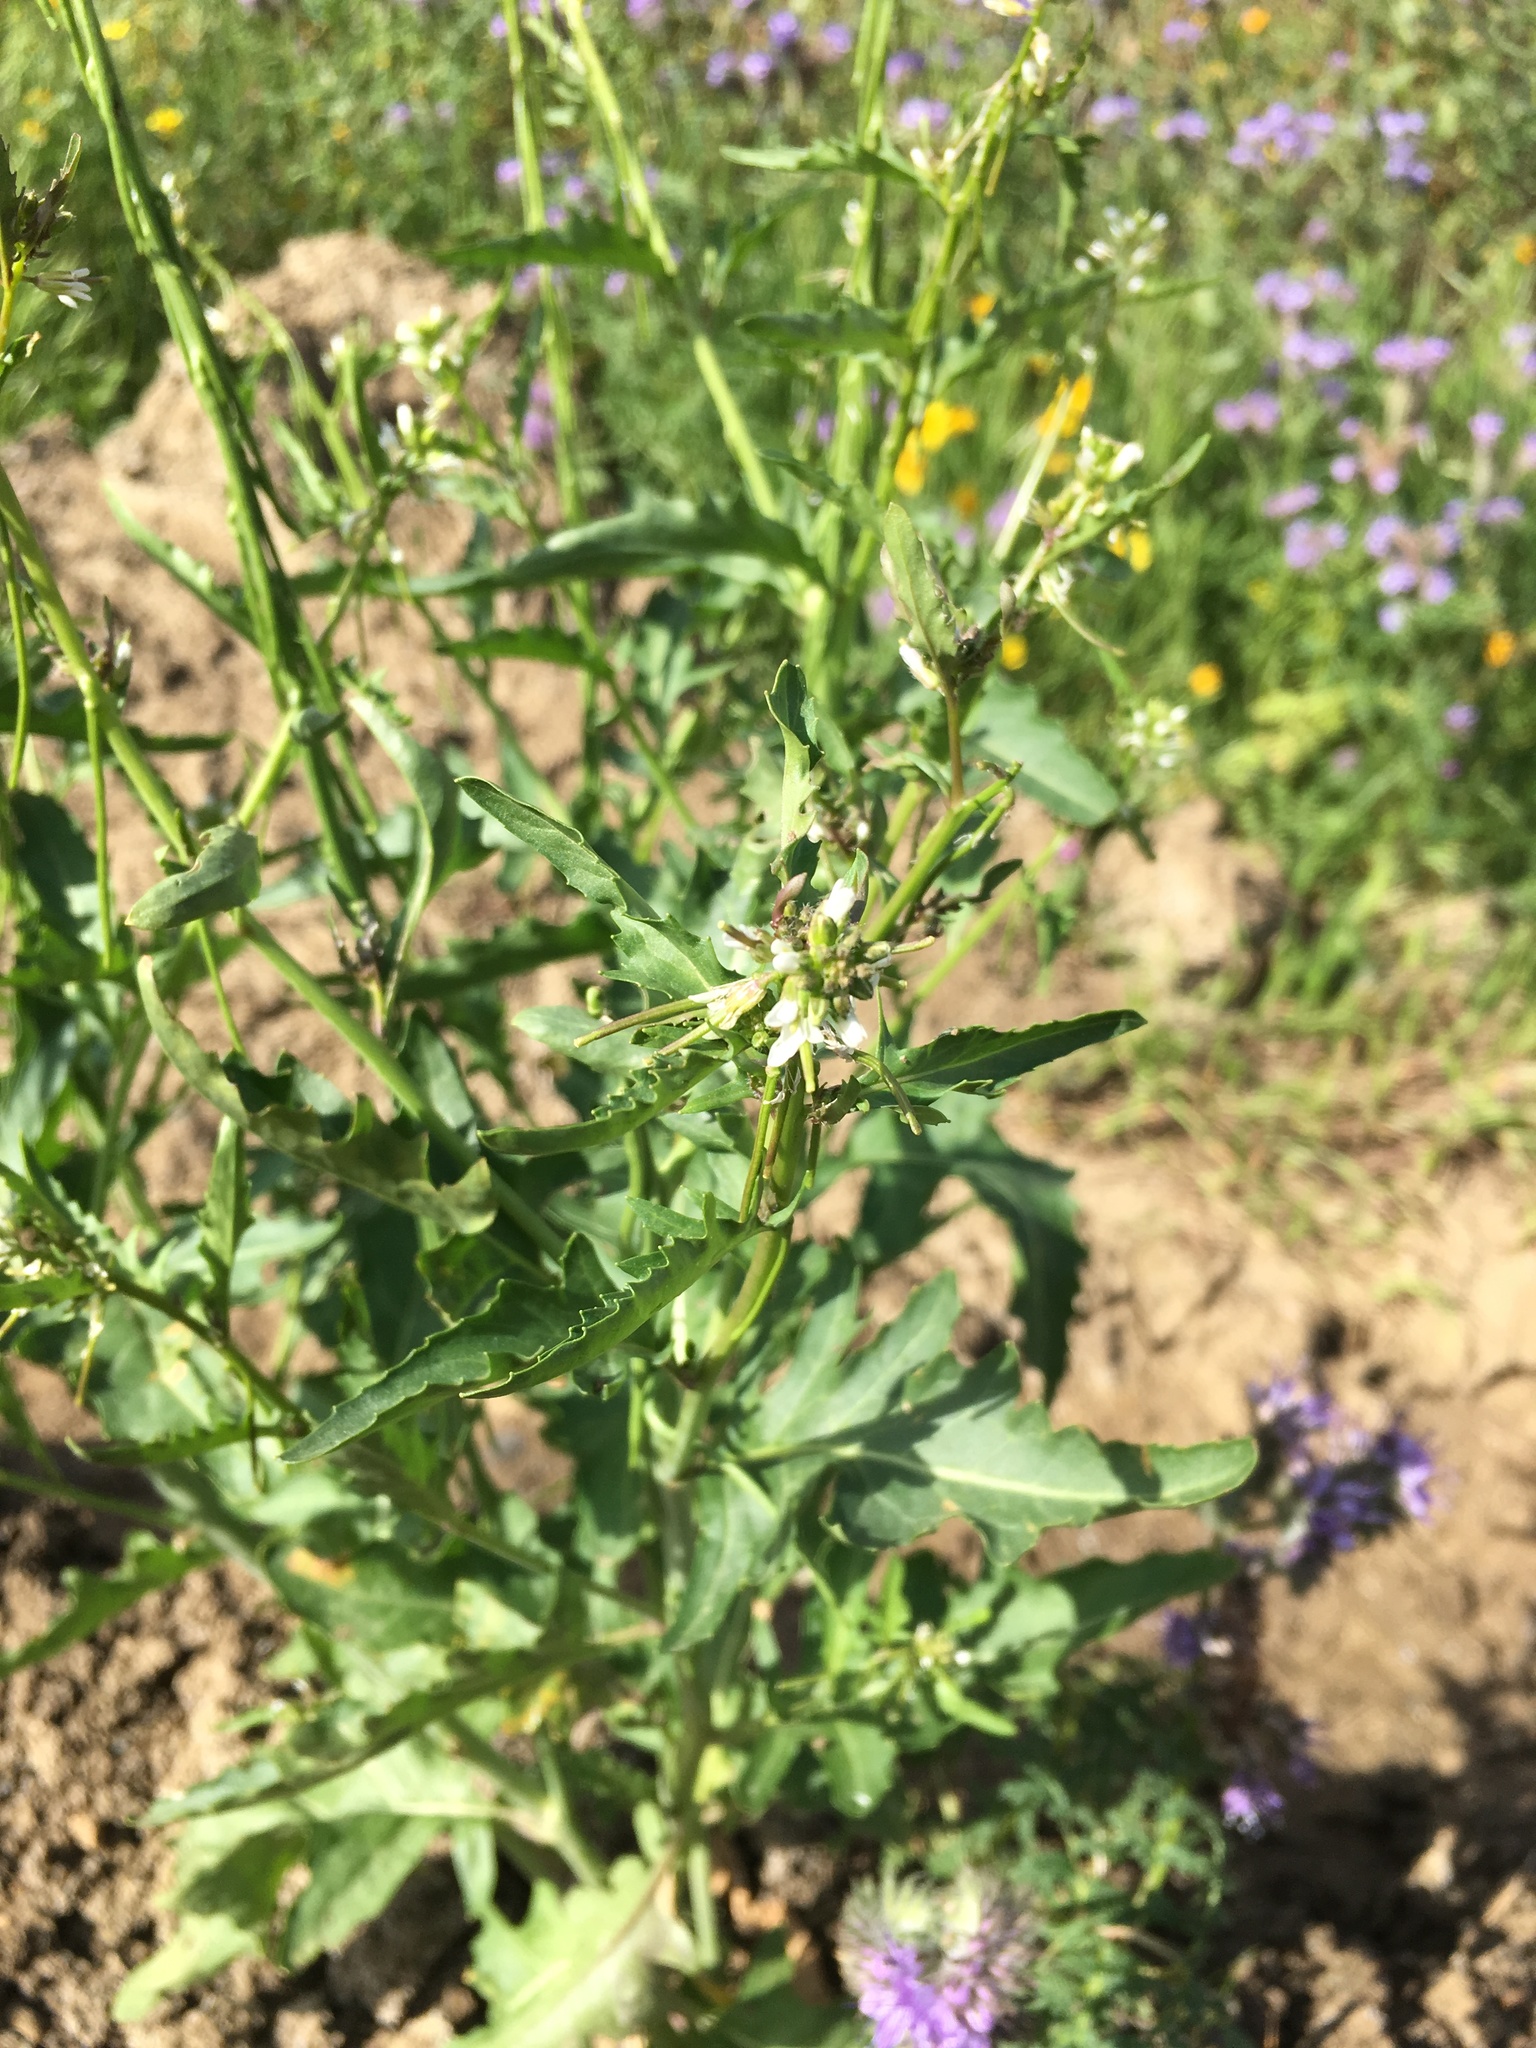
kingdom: Plantae
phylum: Tracheophyta
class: Magnoliopsida
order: Brassicales
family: Brassicaceae
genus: Streptanthus
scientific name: Streptanthus lasiophyllus
